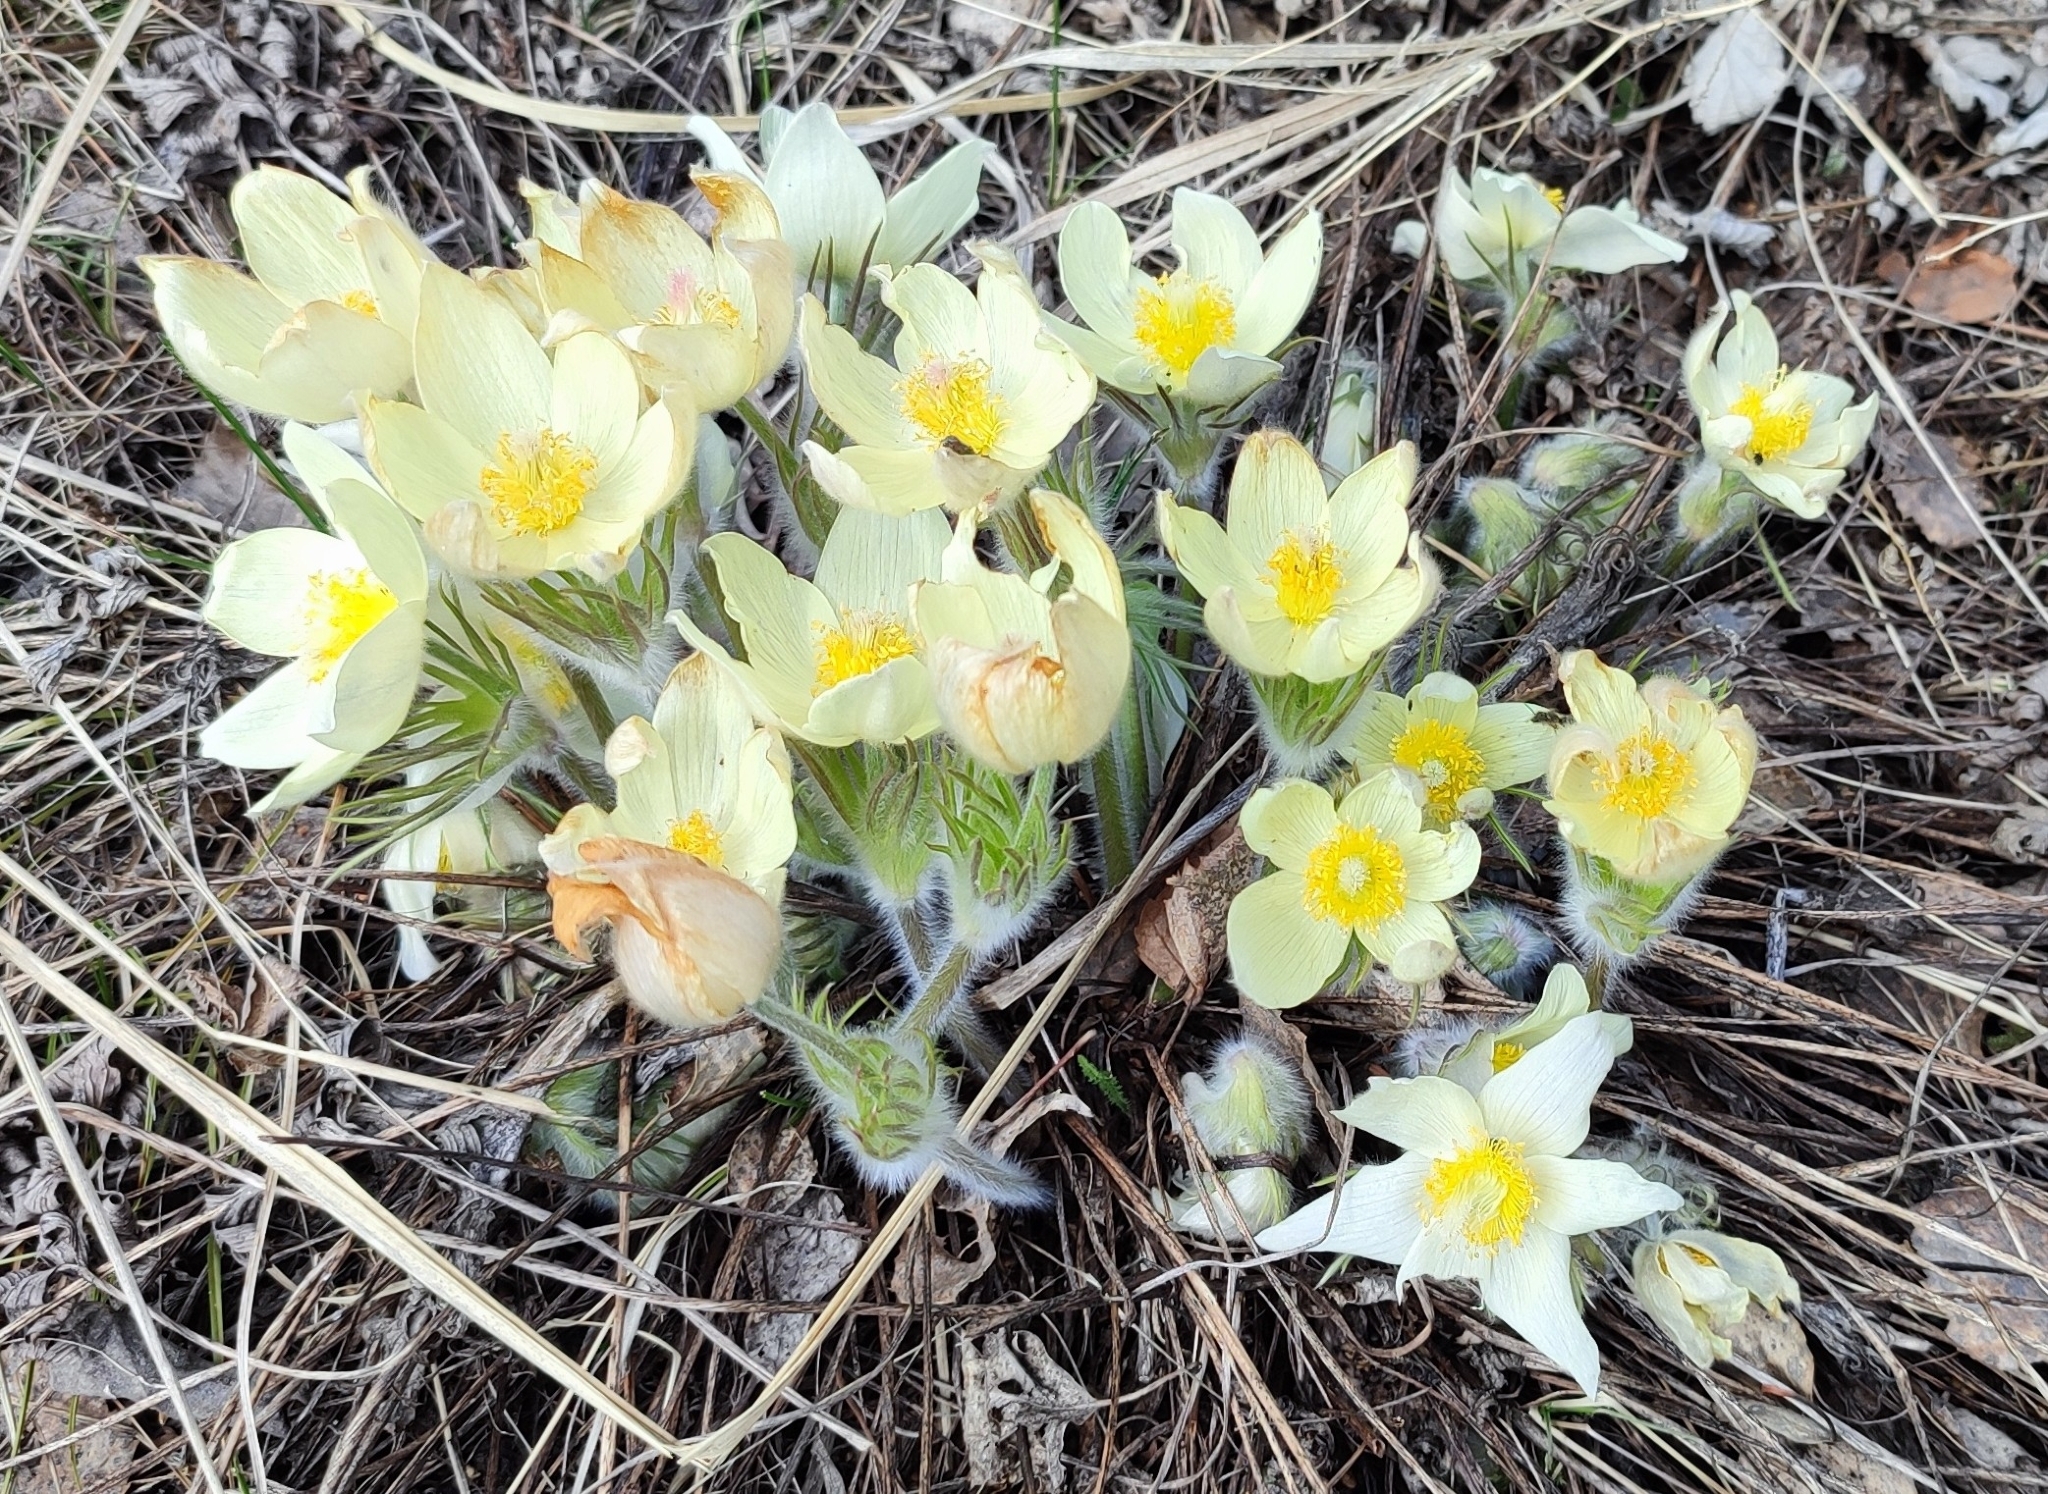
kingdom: Plantae
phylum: Tracheophyta
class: Magnoliopsida
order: Ranunculales
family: Ranunculaceae
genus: Pulsatilla
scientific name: Pulsatilla patens
